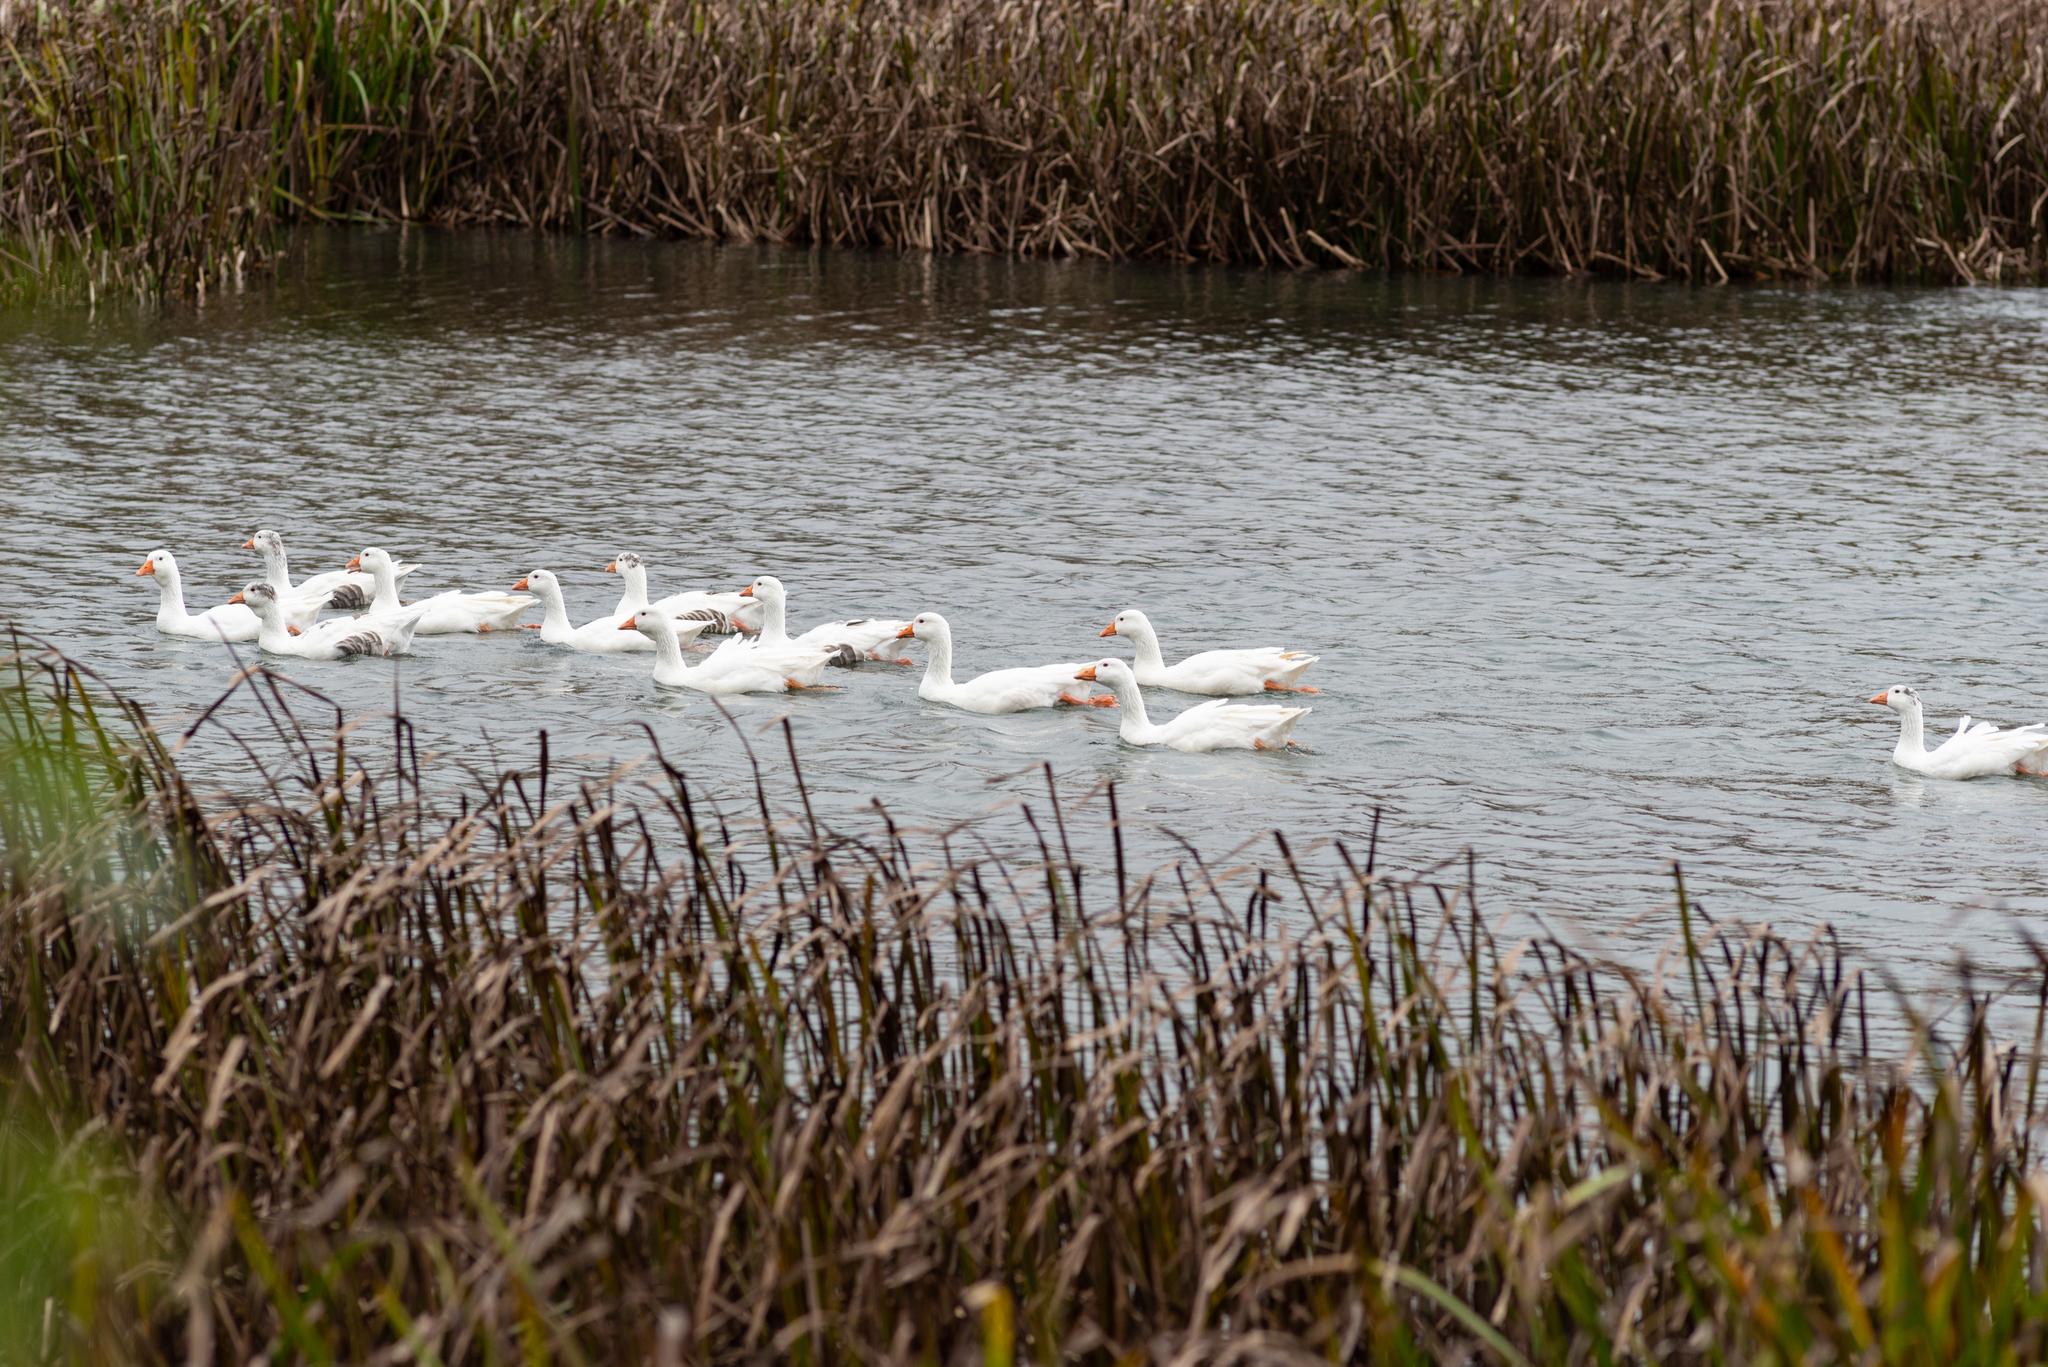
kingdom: Animalia
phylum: Chordata
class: Aves
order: Anseriformes
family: Anatidae
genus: Anser
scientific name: Anser anser
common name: Greylag goose
